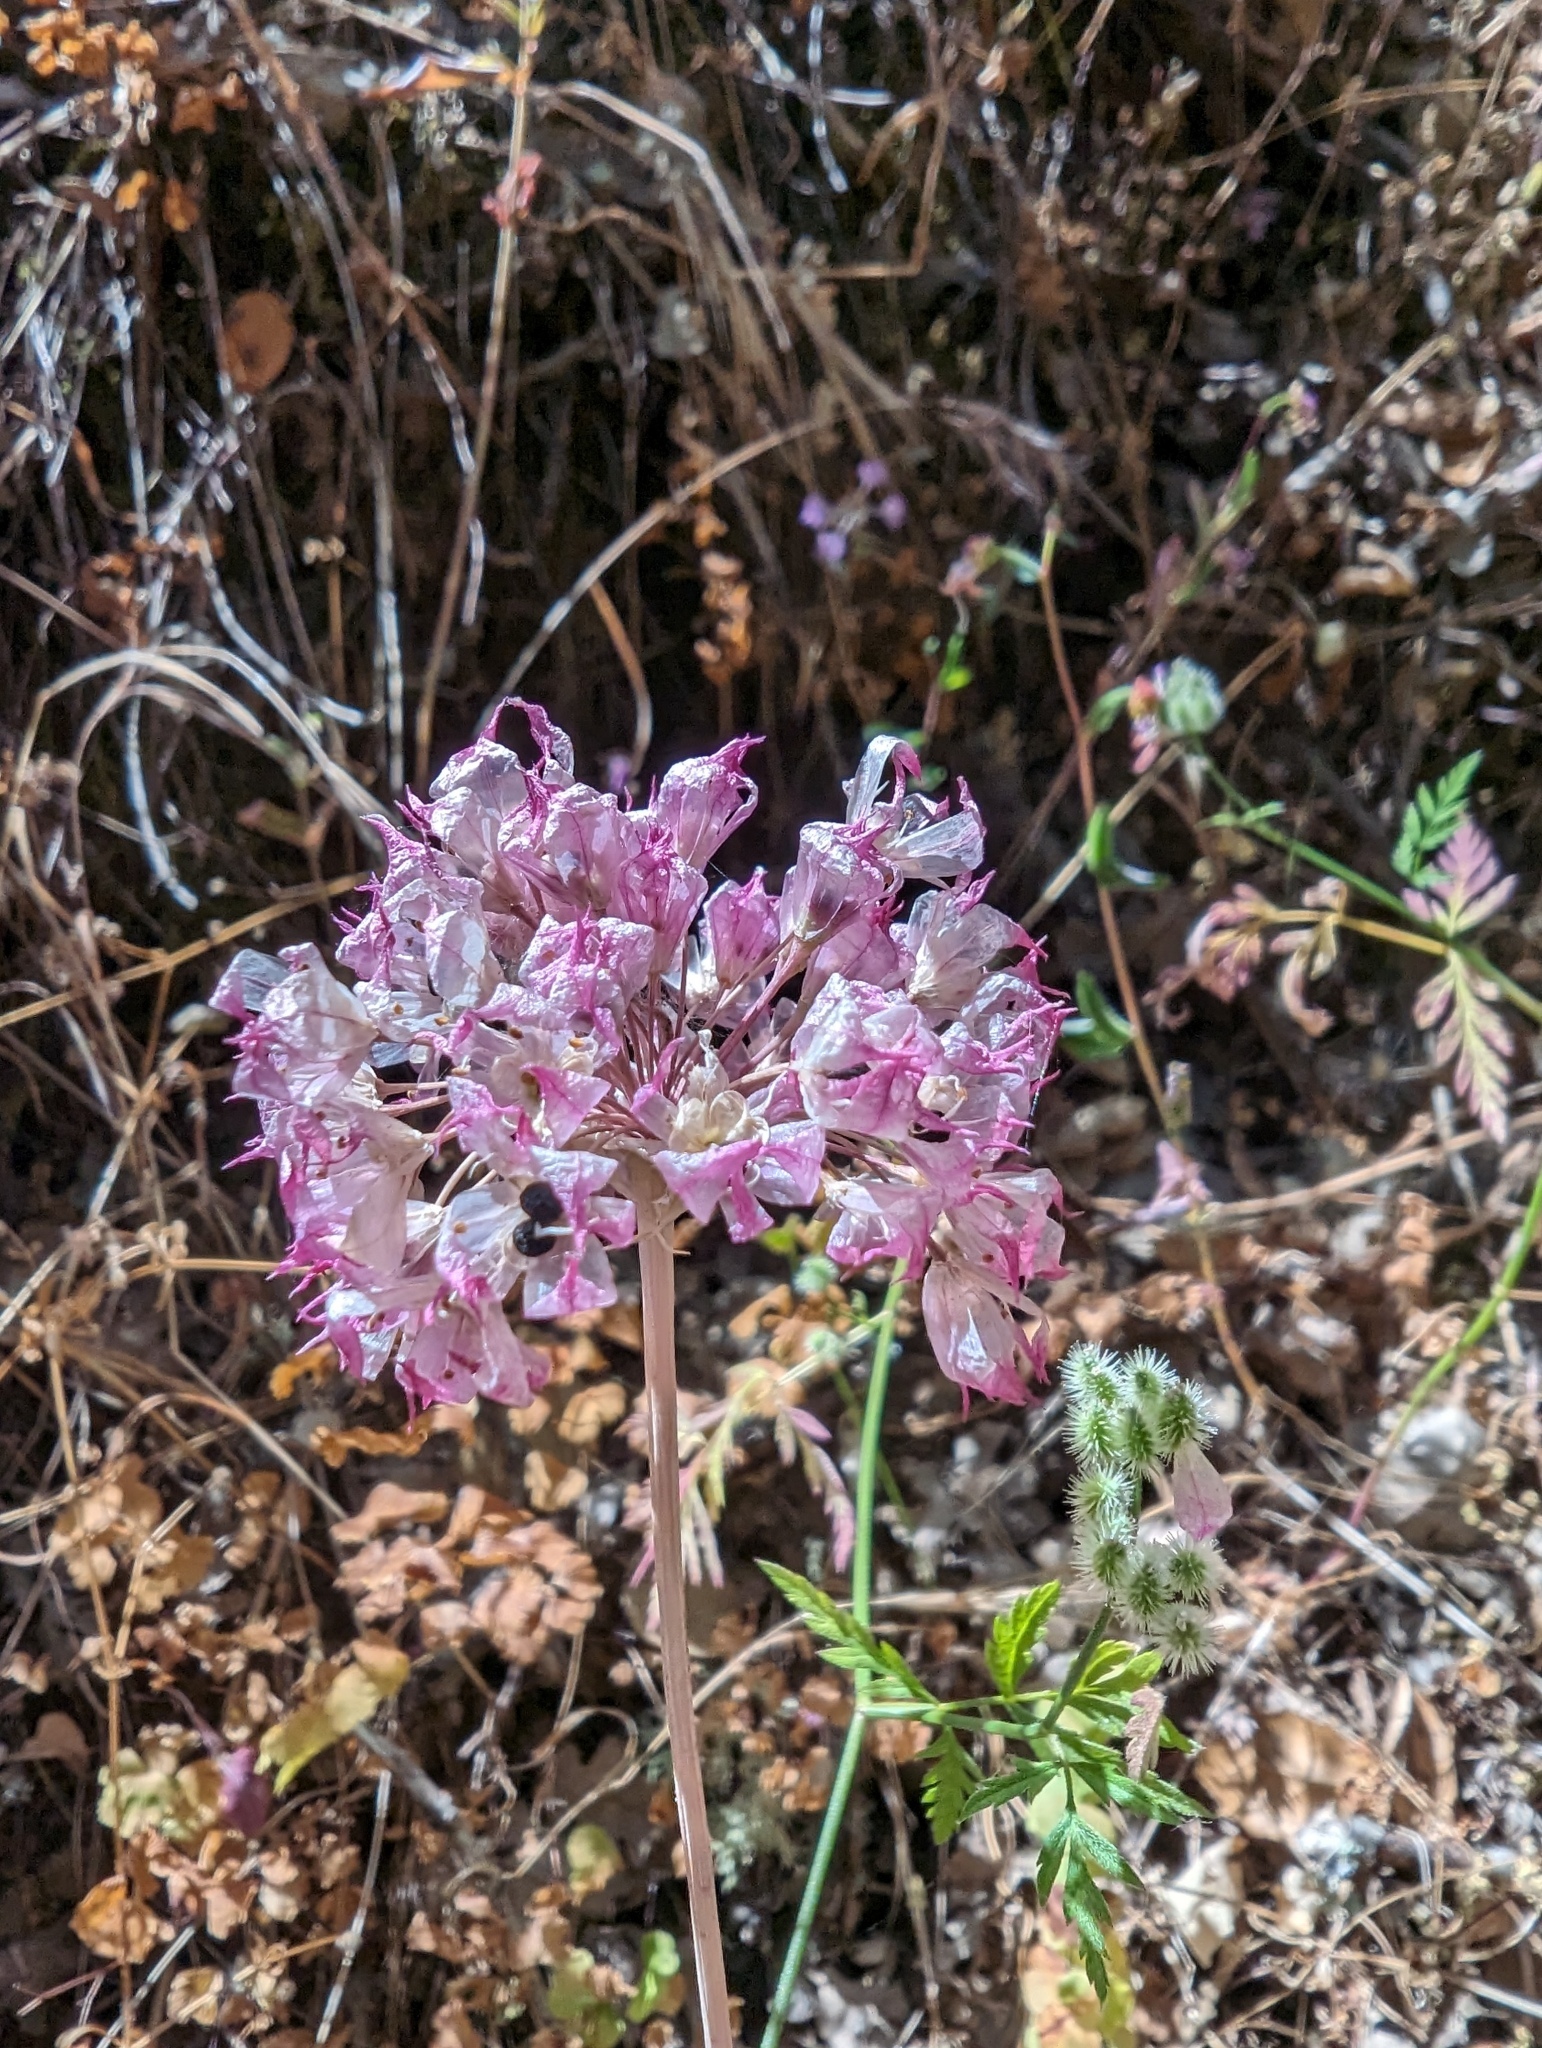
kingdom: Plantae
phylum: Tracheophyta
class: Liliopsida
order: Asparagales
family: Amaryllidaceae
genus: Allium
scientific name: Allium serra
